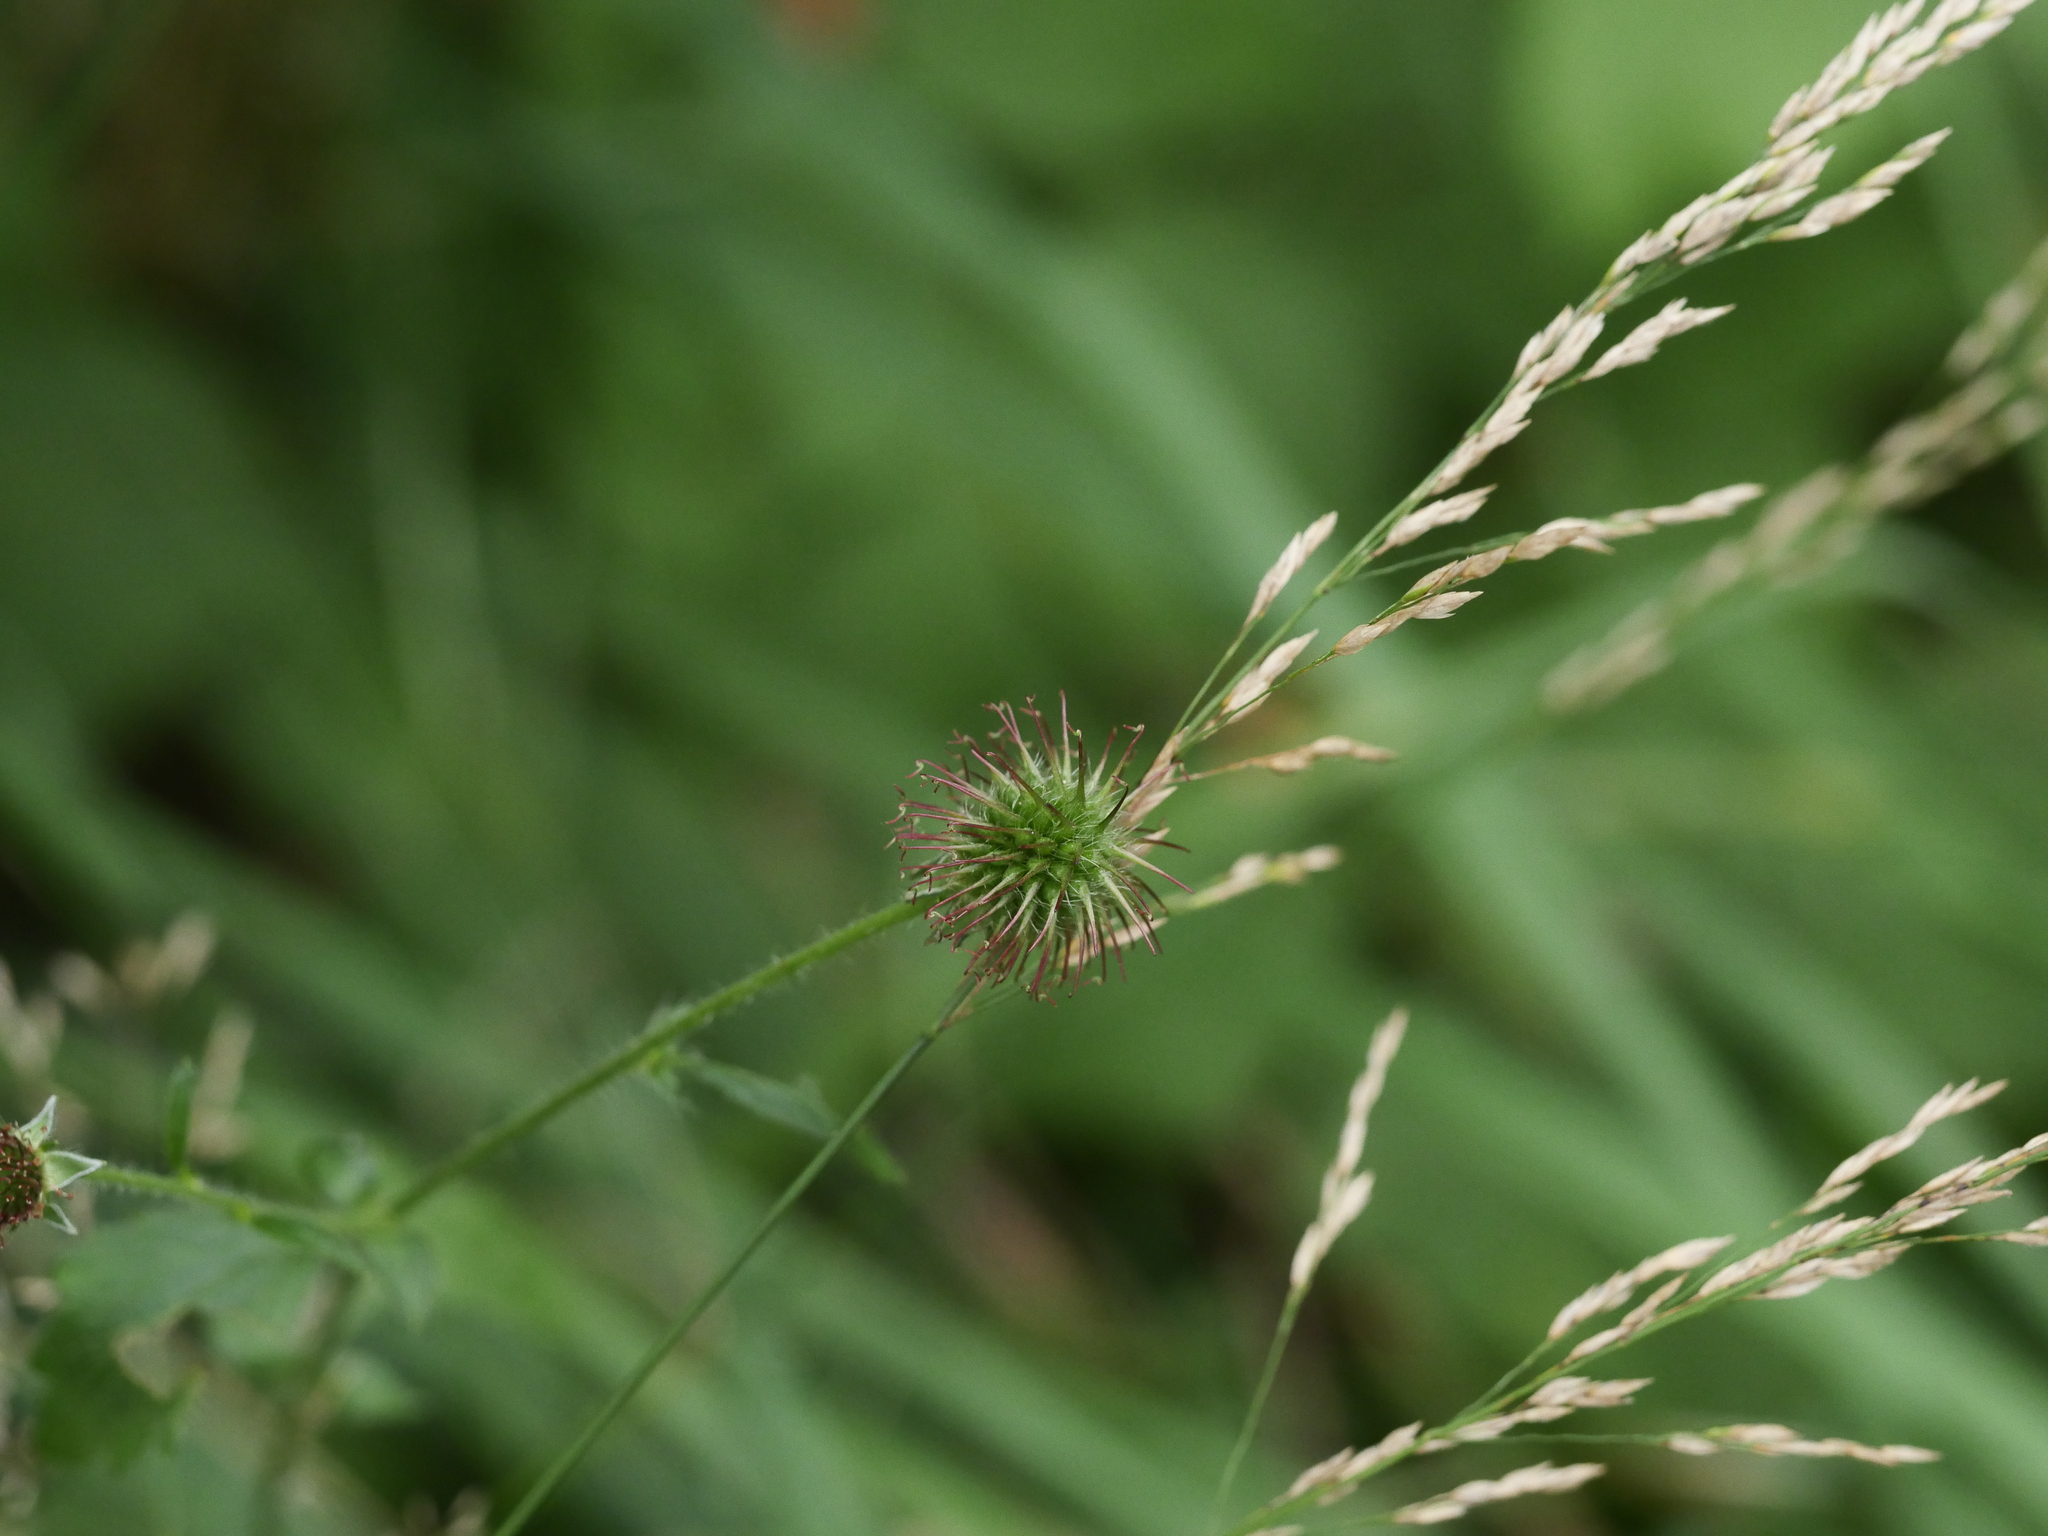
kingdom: Plantae
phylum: Tracheophyta
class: Magnoliopsida
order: Rosales
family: Rosaceae
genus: Geum
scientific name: Geum urbanum
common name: Wood avens
